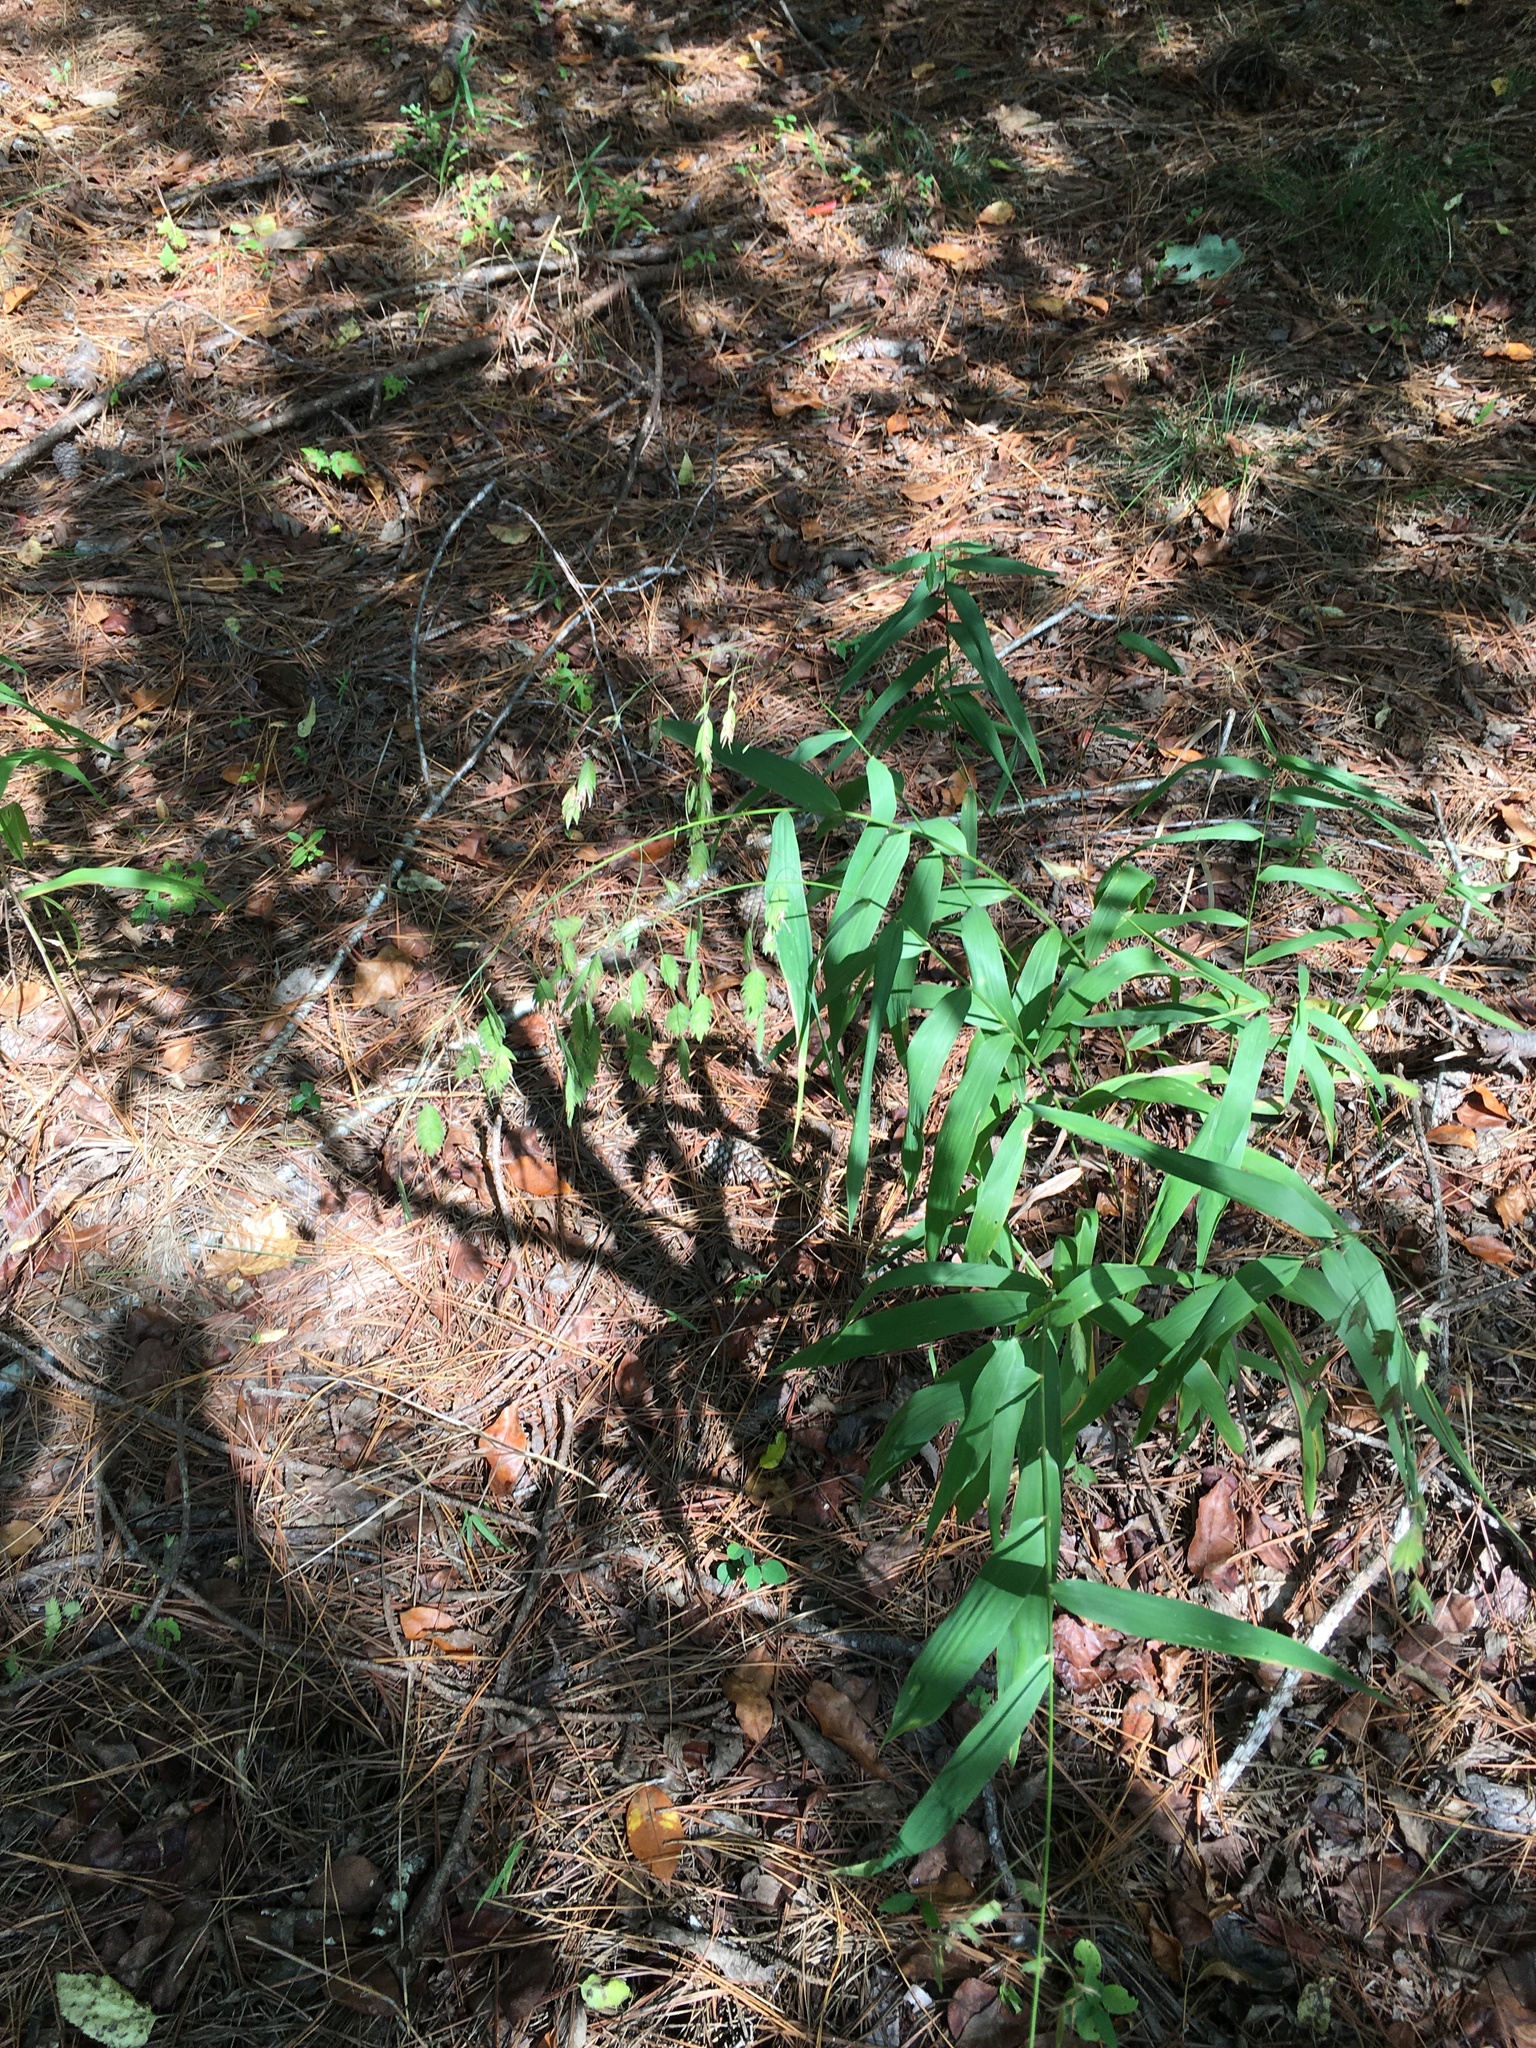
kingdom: Plantae
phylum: Tracheophyta
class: Liliopsida
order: Poales
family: Poaceae
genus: Chasmanthium
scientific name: Chasmanthium latifolium
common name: Broad-leaved chasmanthium
